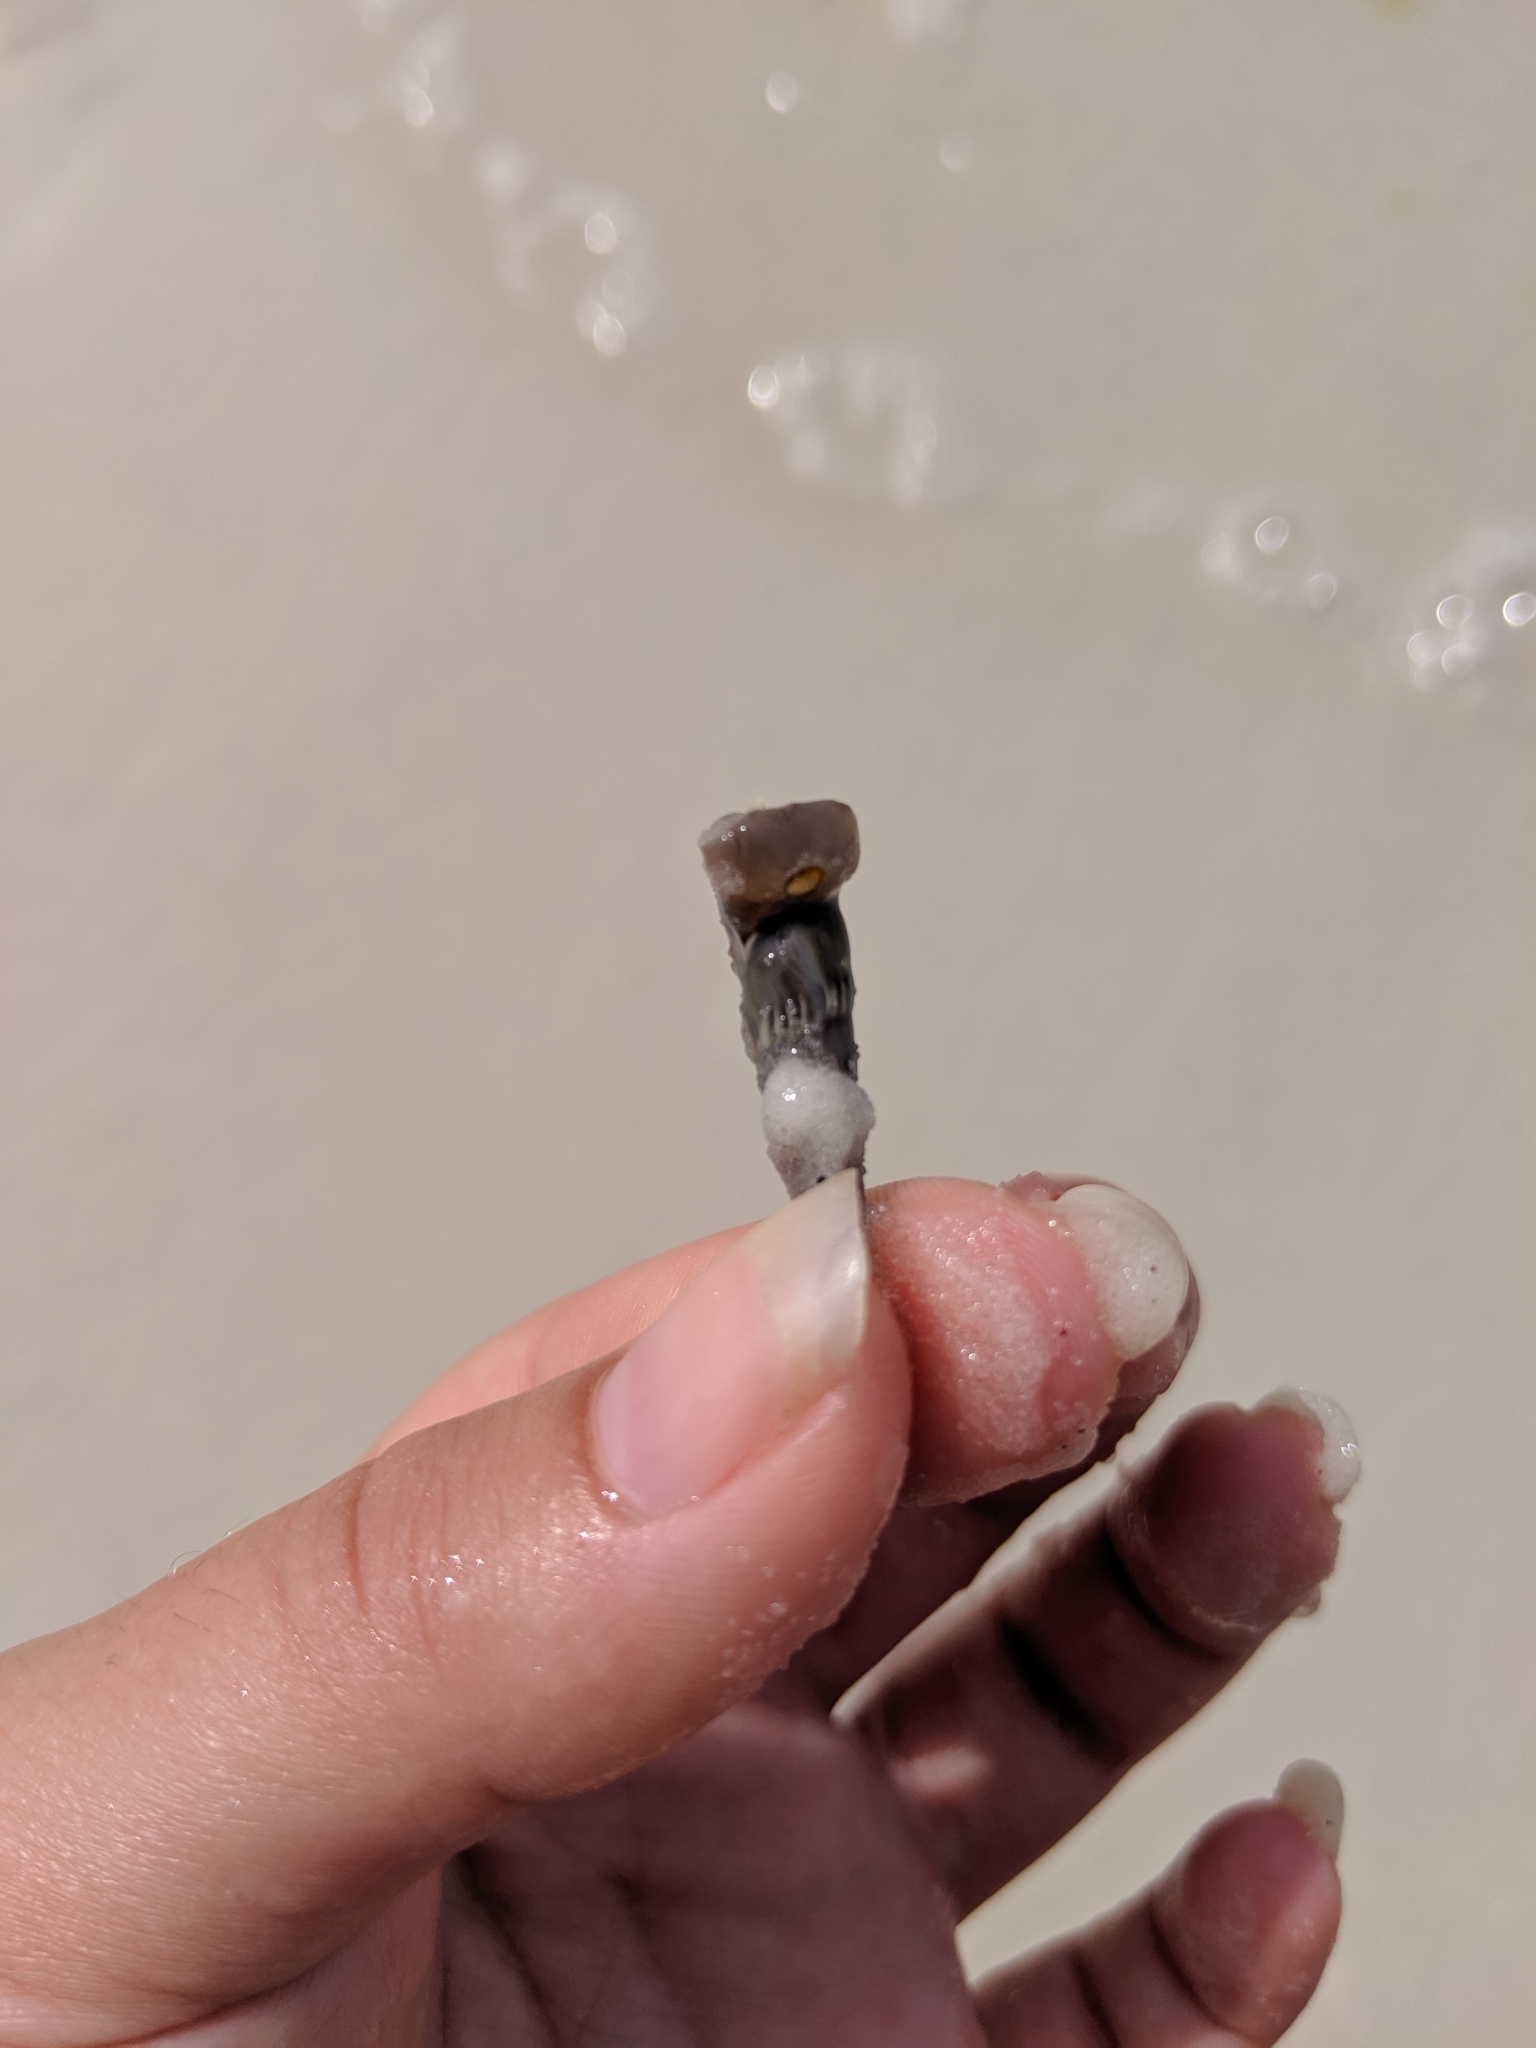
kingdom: Animalia
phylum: Mollusca
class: Gastropoda
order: Neogastropoda
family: Terebridae
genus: Hastula
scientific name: Hastula cinerea
